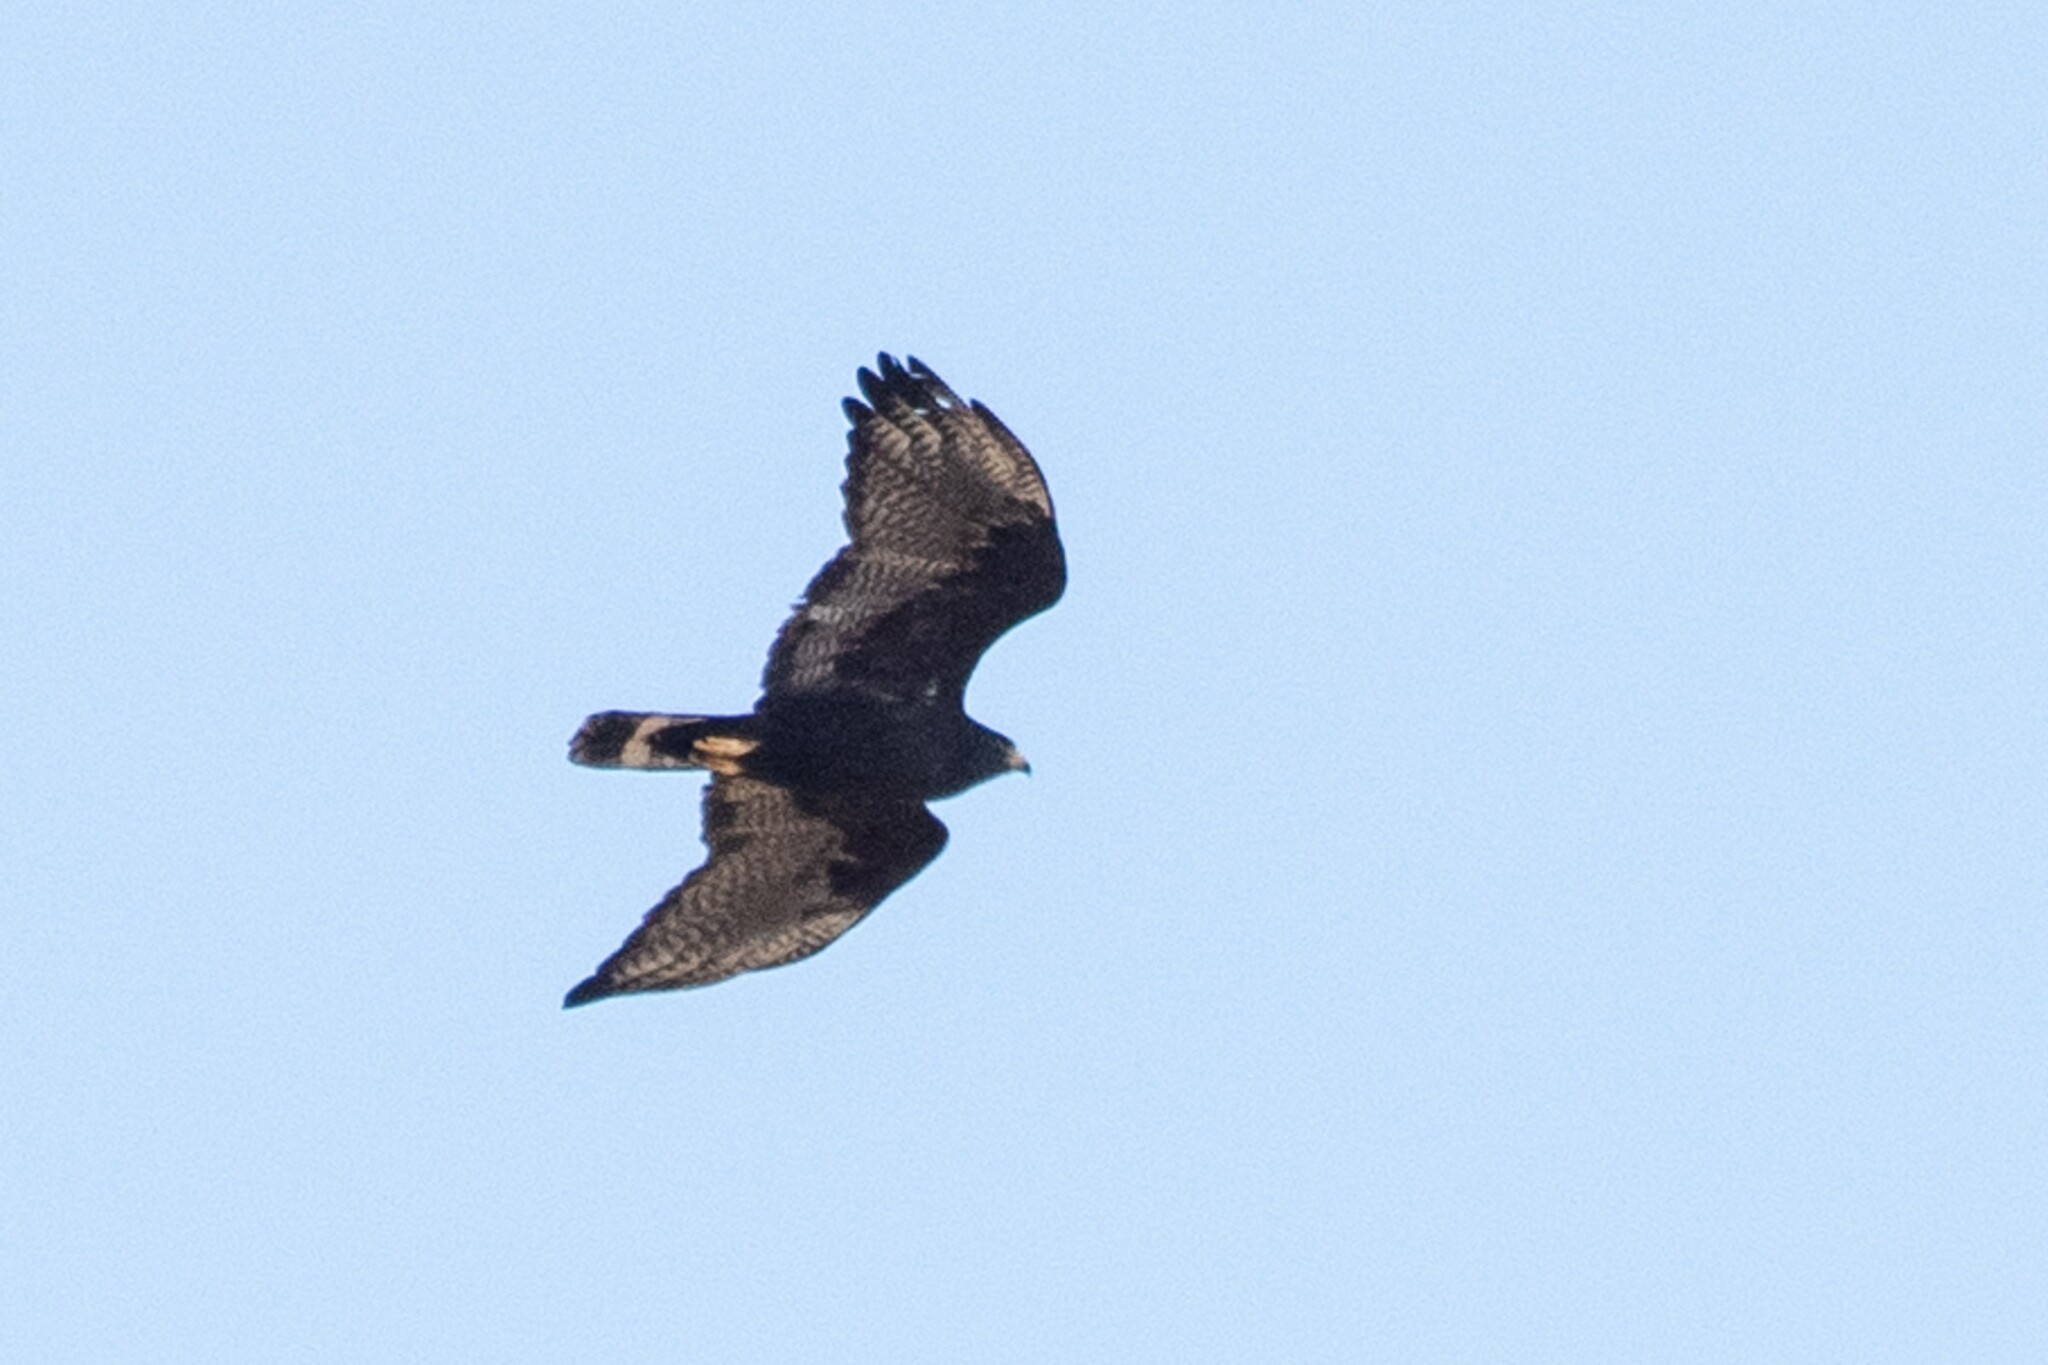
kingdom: Animalia
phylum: Chordata
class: Aves
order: Accipitriformes
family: Accipitridae
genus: Buteo
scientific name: Buteo albonotatus
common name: Zone-tailed hawk
